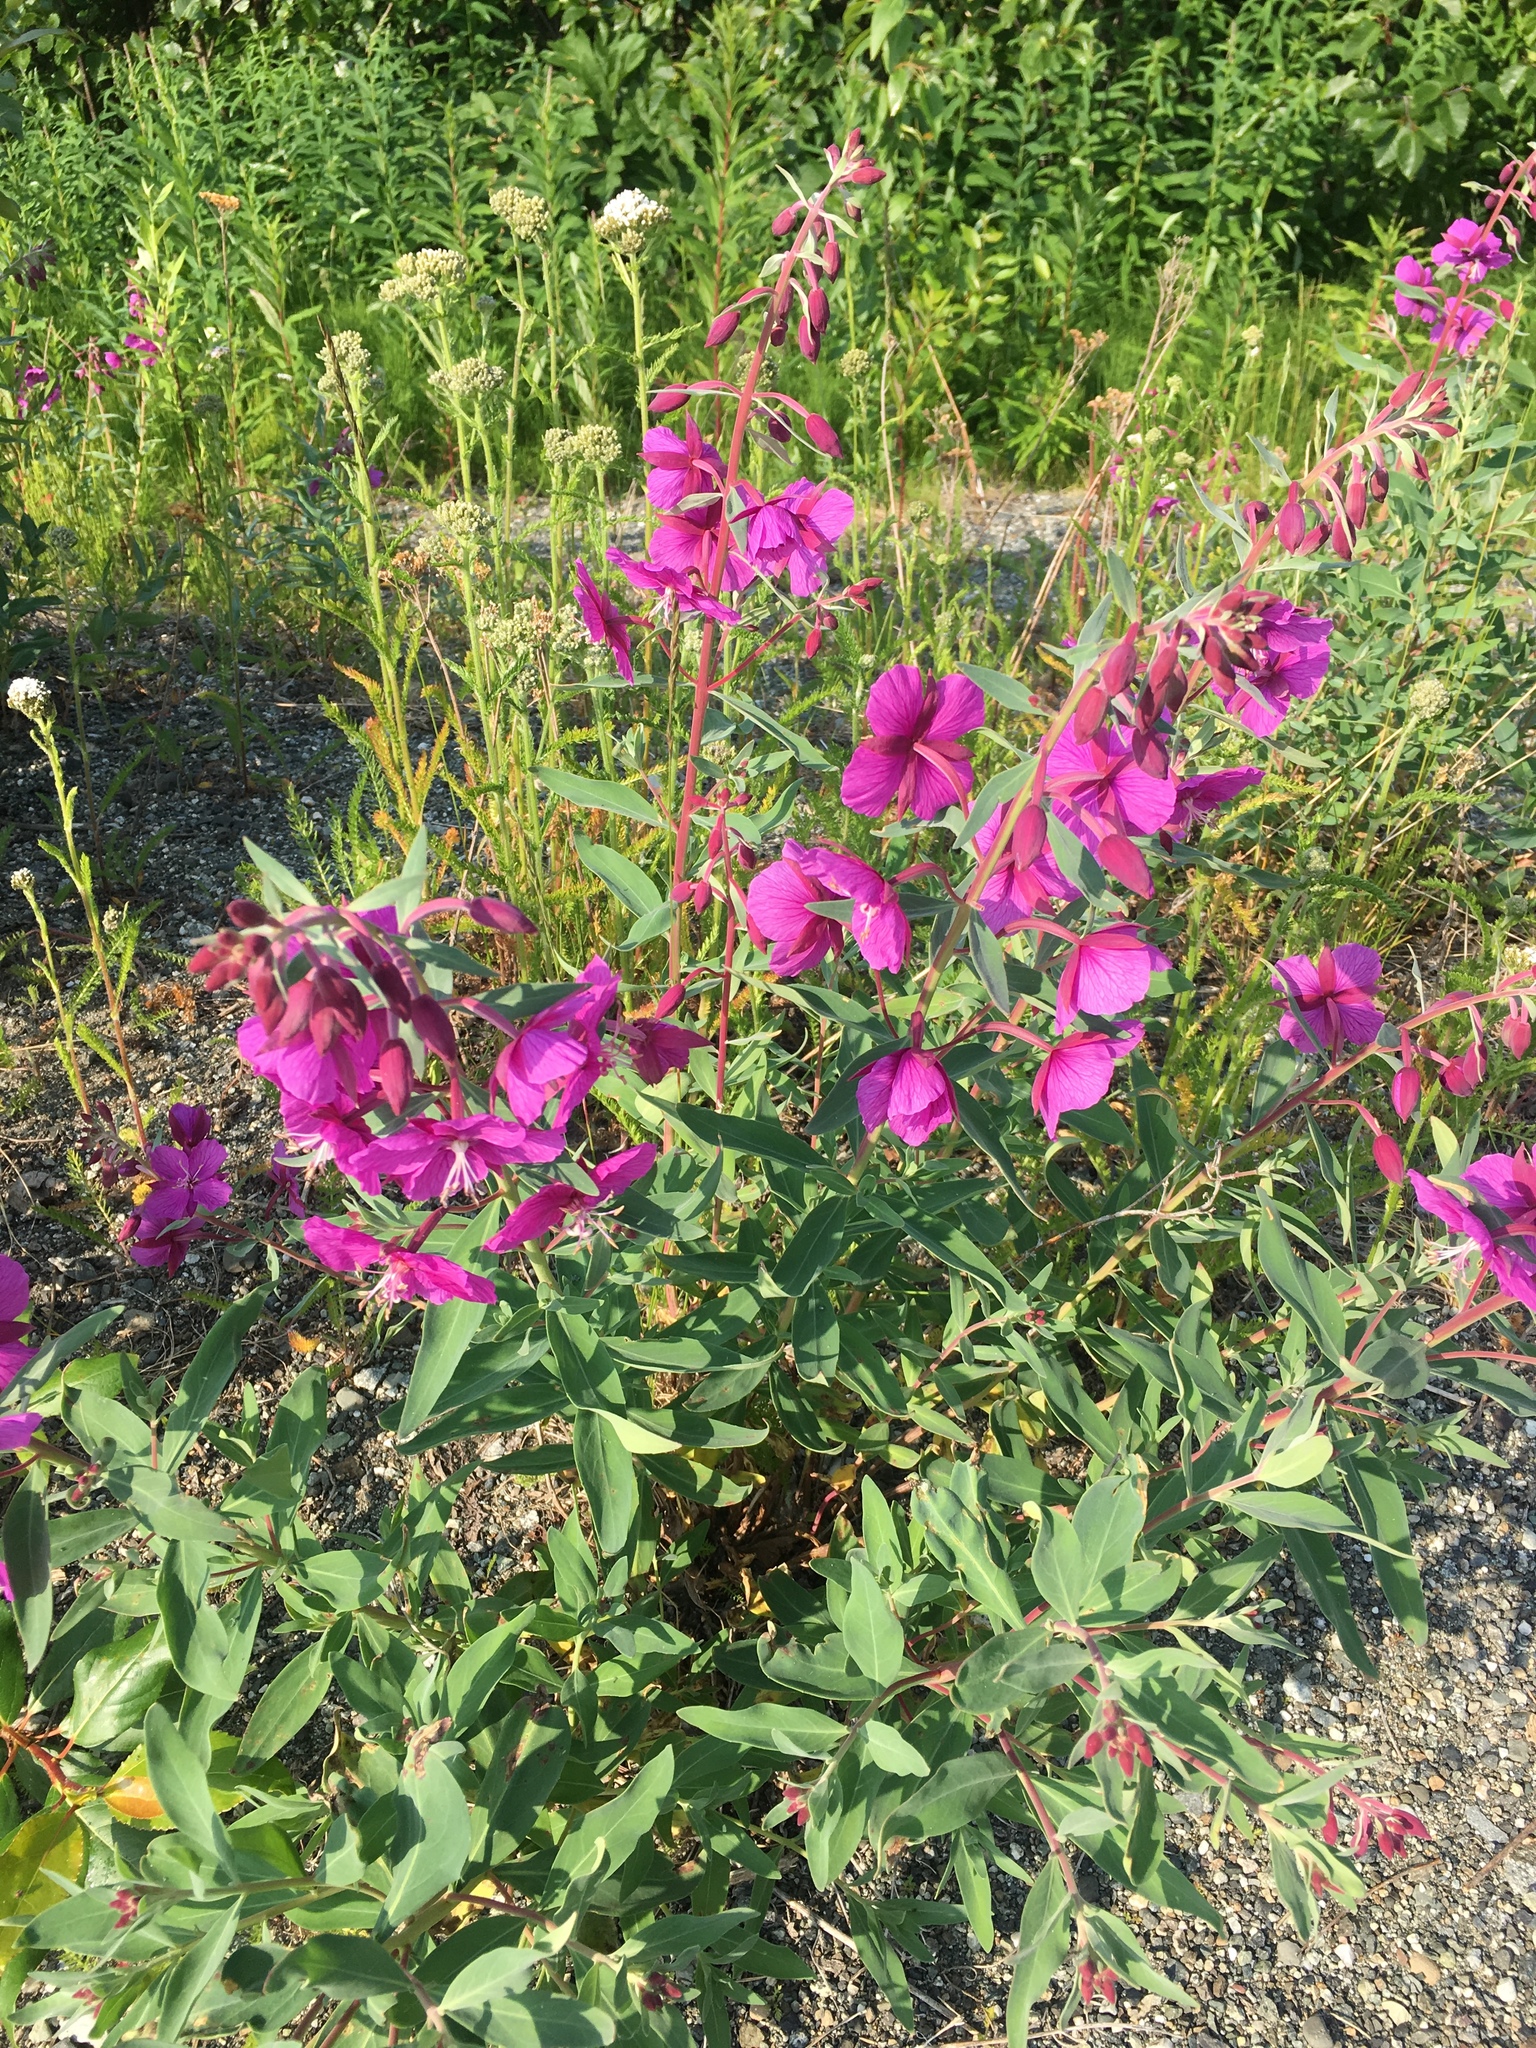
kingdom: Plantae
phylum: Tracheophyta
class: Magnoliopsida
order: Myrtales
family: Onagraceae
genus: Chamaenerion
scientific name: Chamaenerion latifolium
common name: Dwarf fireweed
